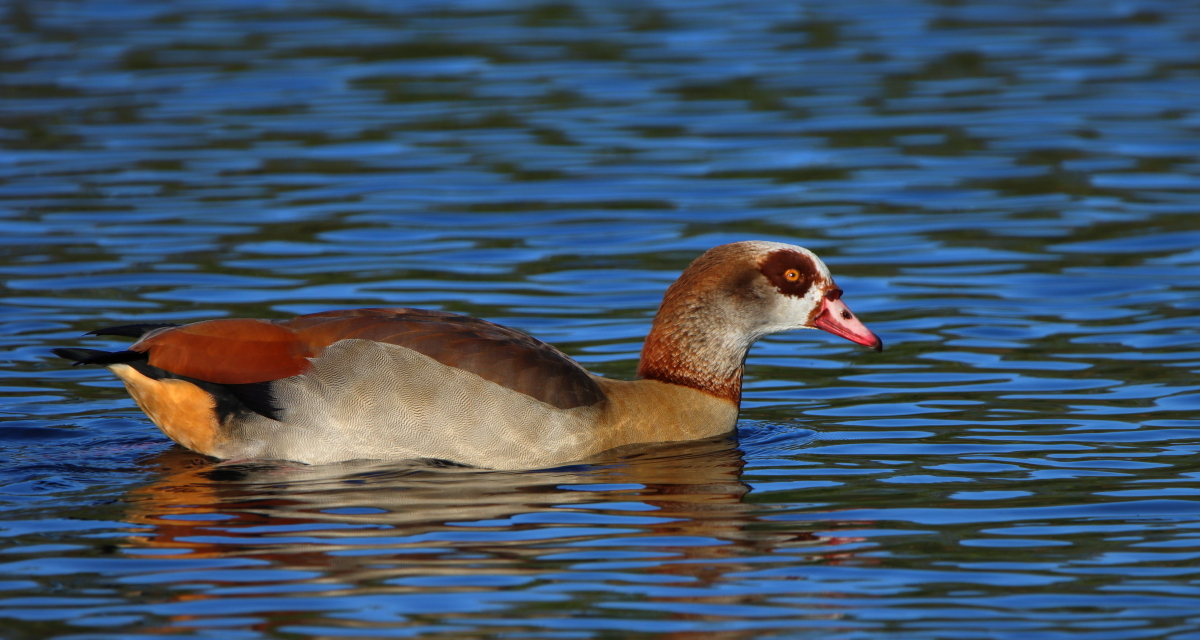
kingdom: Animalia
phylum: Chordata
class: Aves
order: Anseriformes
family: Anatidae
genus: Alopochen
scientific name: Alopochen aegyptiaca
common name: Egyptian goose
